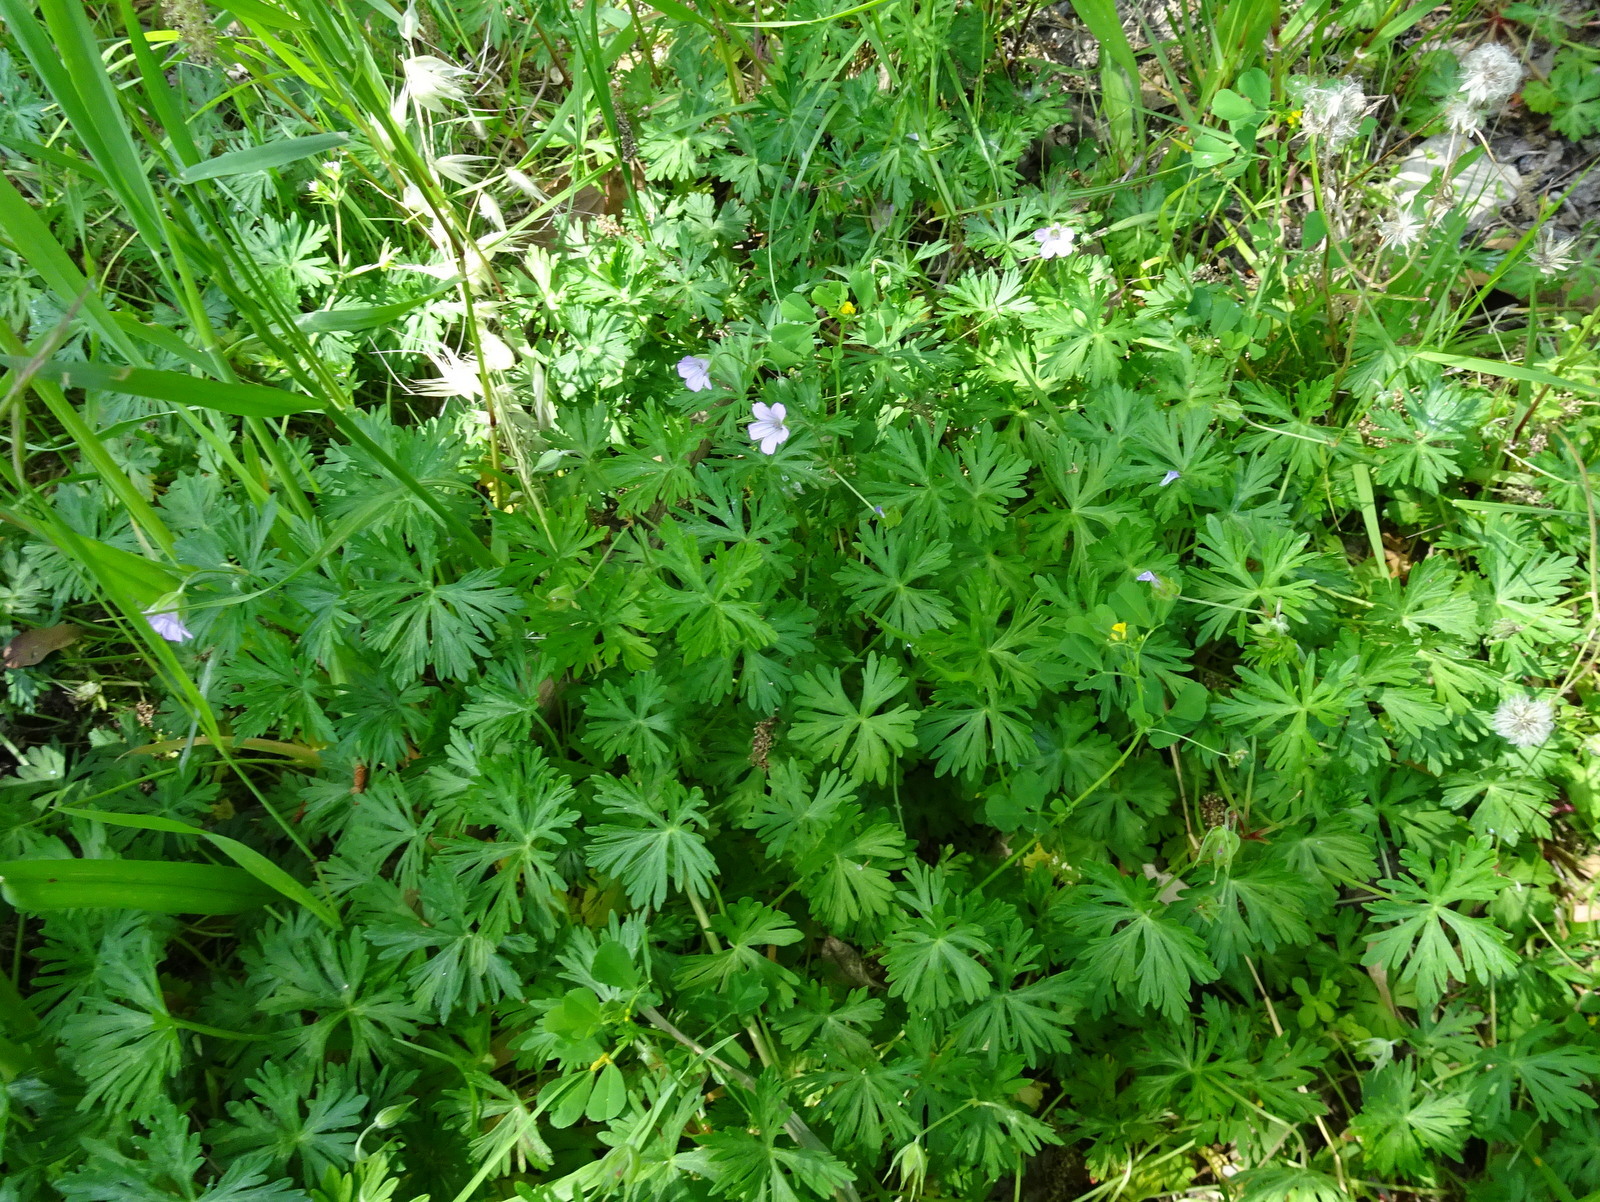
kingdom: Plantae
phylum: Tracheophyta
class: Magnoliopsida
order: Geraniales
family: Geraniaceae
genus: Geranium
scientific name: Geranium columbinum
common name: Long-stalked crane's-bill
